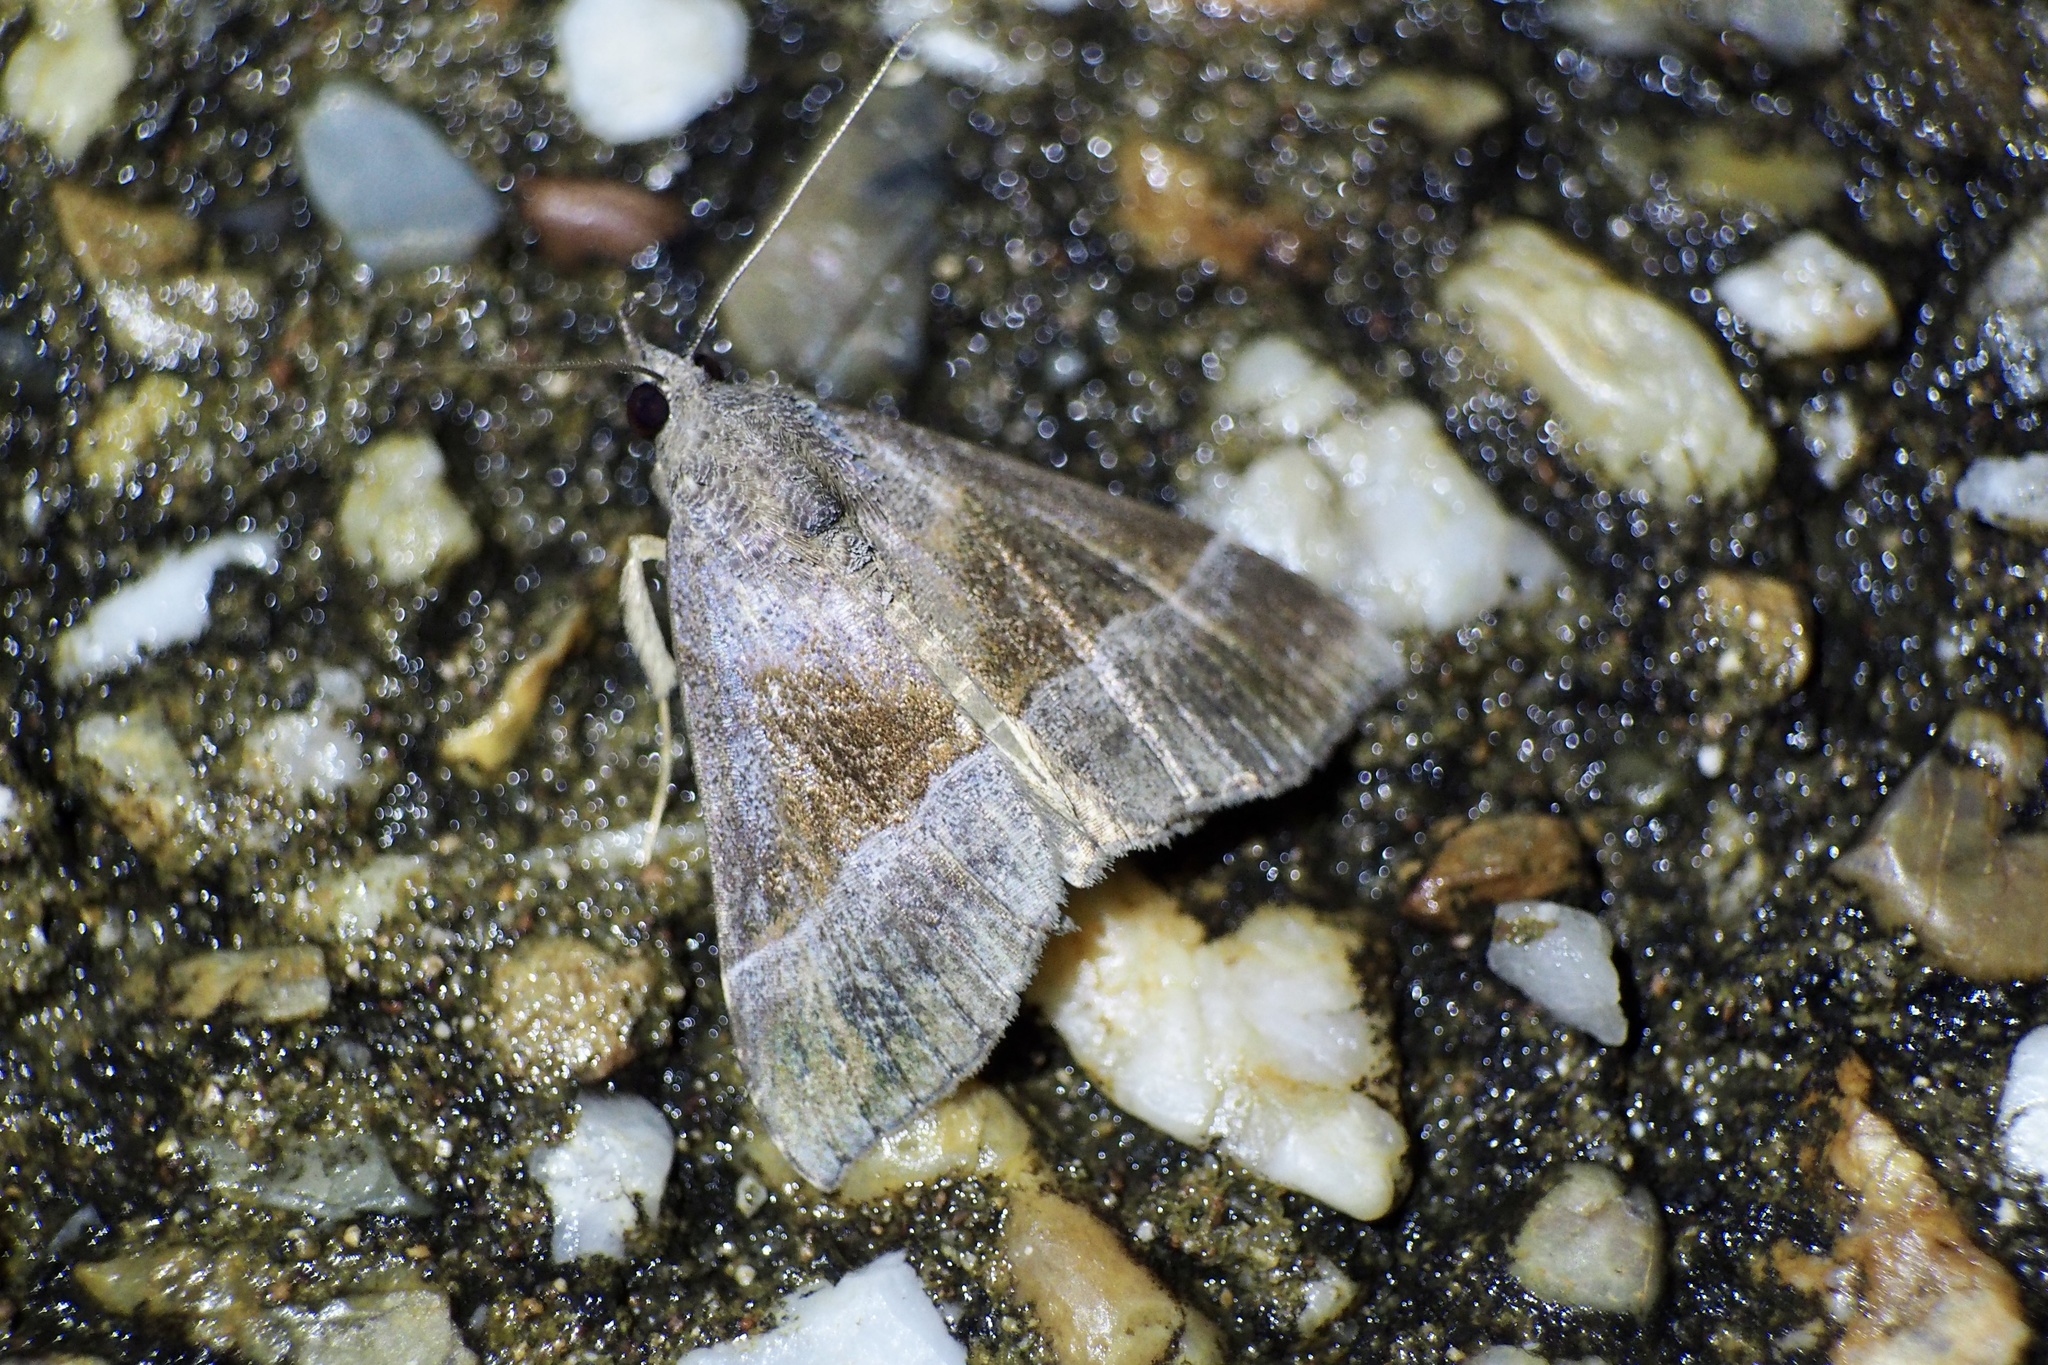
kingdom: Animalia
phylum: Arthropoda
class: Insecta
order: Lepidoptera
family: Erebidae
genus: Hypena
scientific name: Hypena amica
